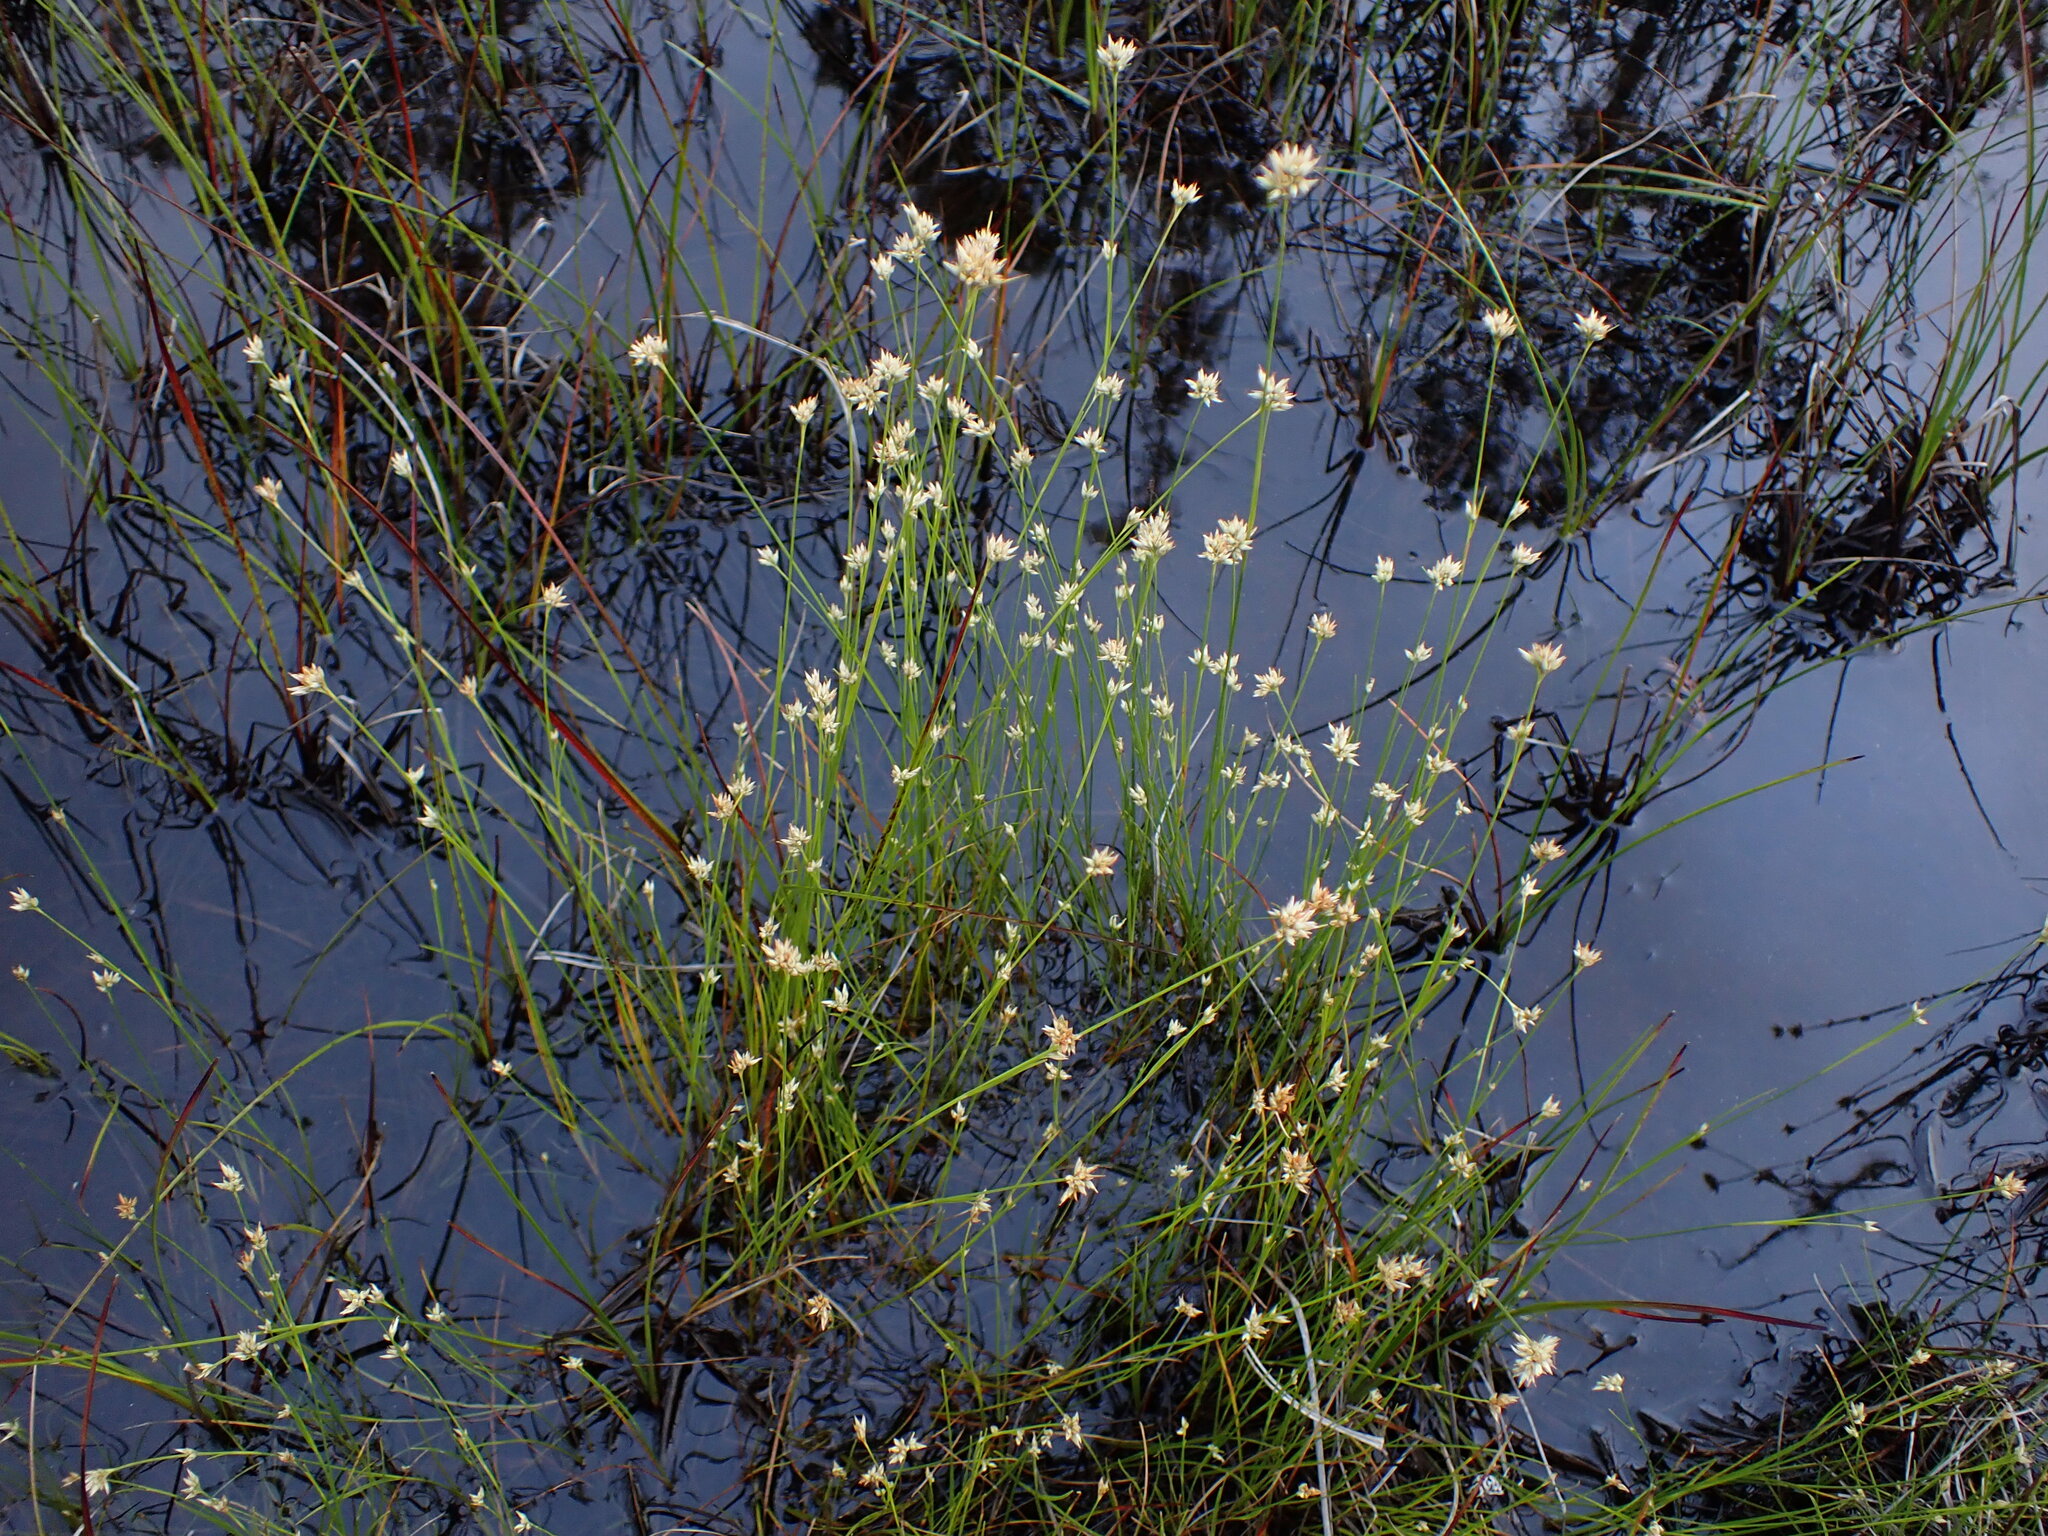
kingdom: Plantae
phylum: Tracheophyta
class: Liliopsida
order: Poales
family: Cyperaceae
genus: Rhynchospora
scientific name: Rhynchospora alba
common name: White beak-sedge
